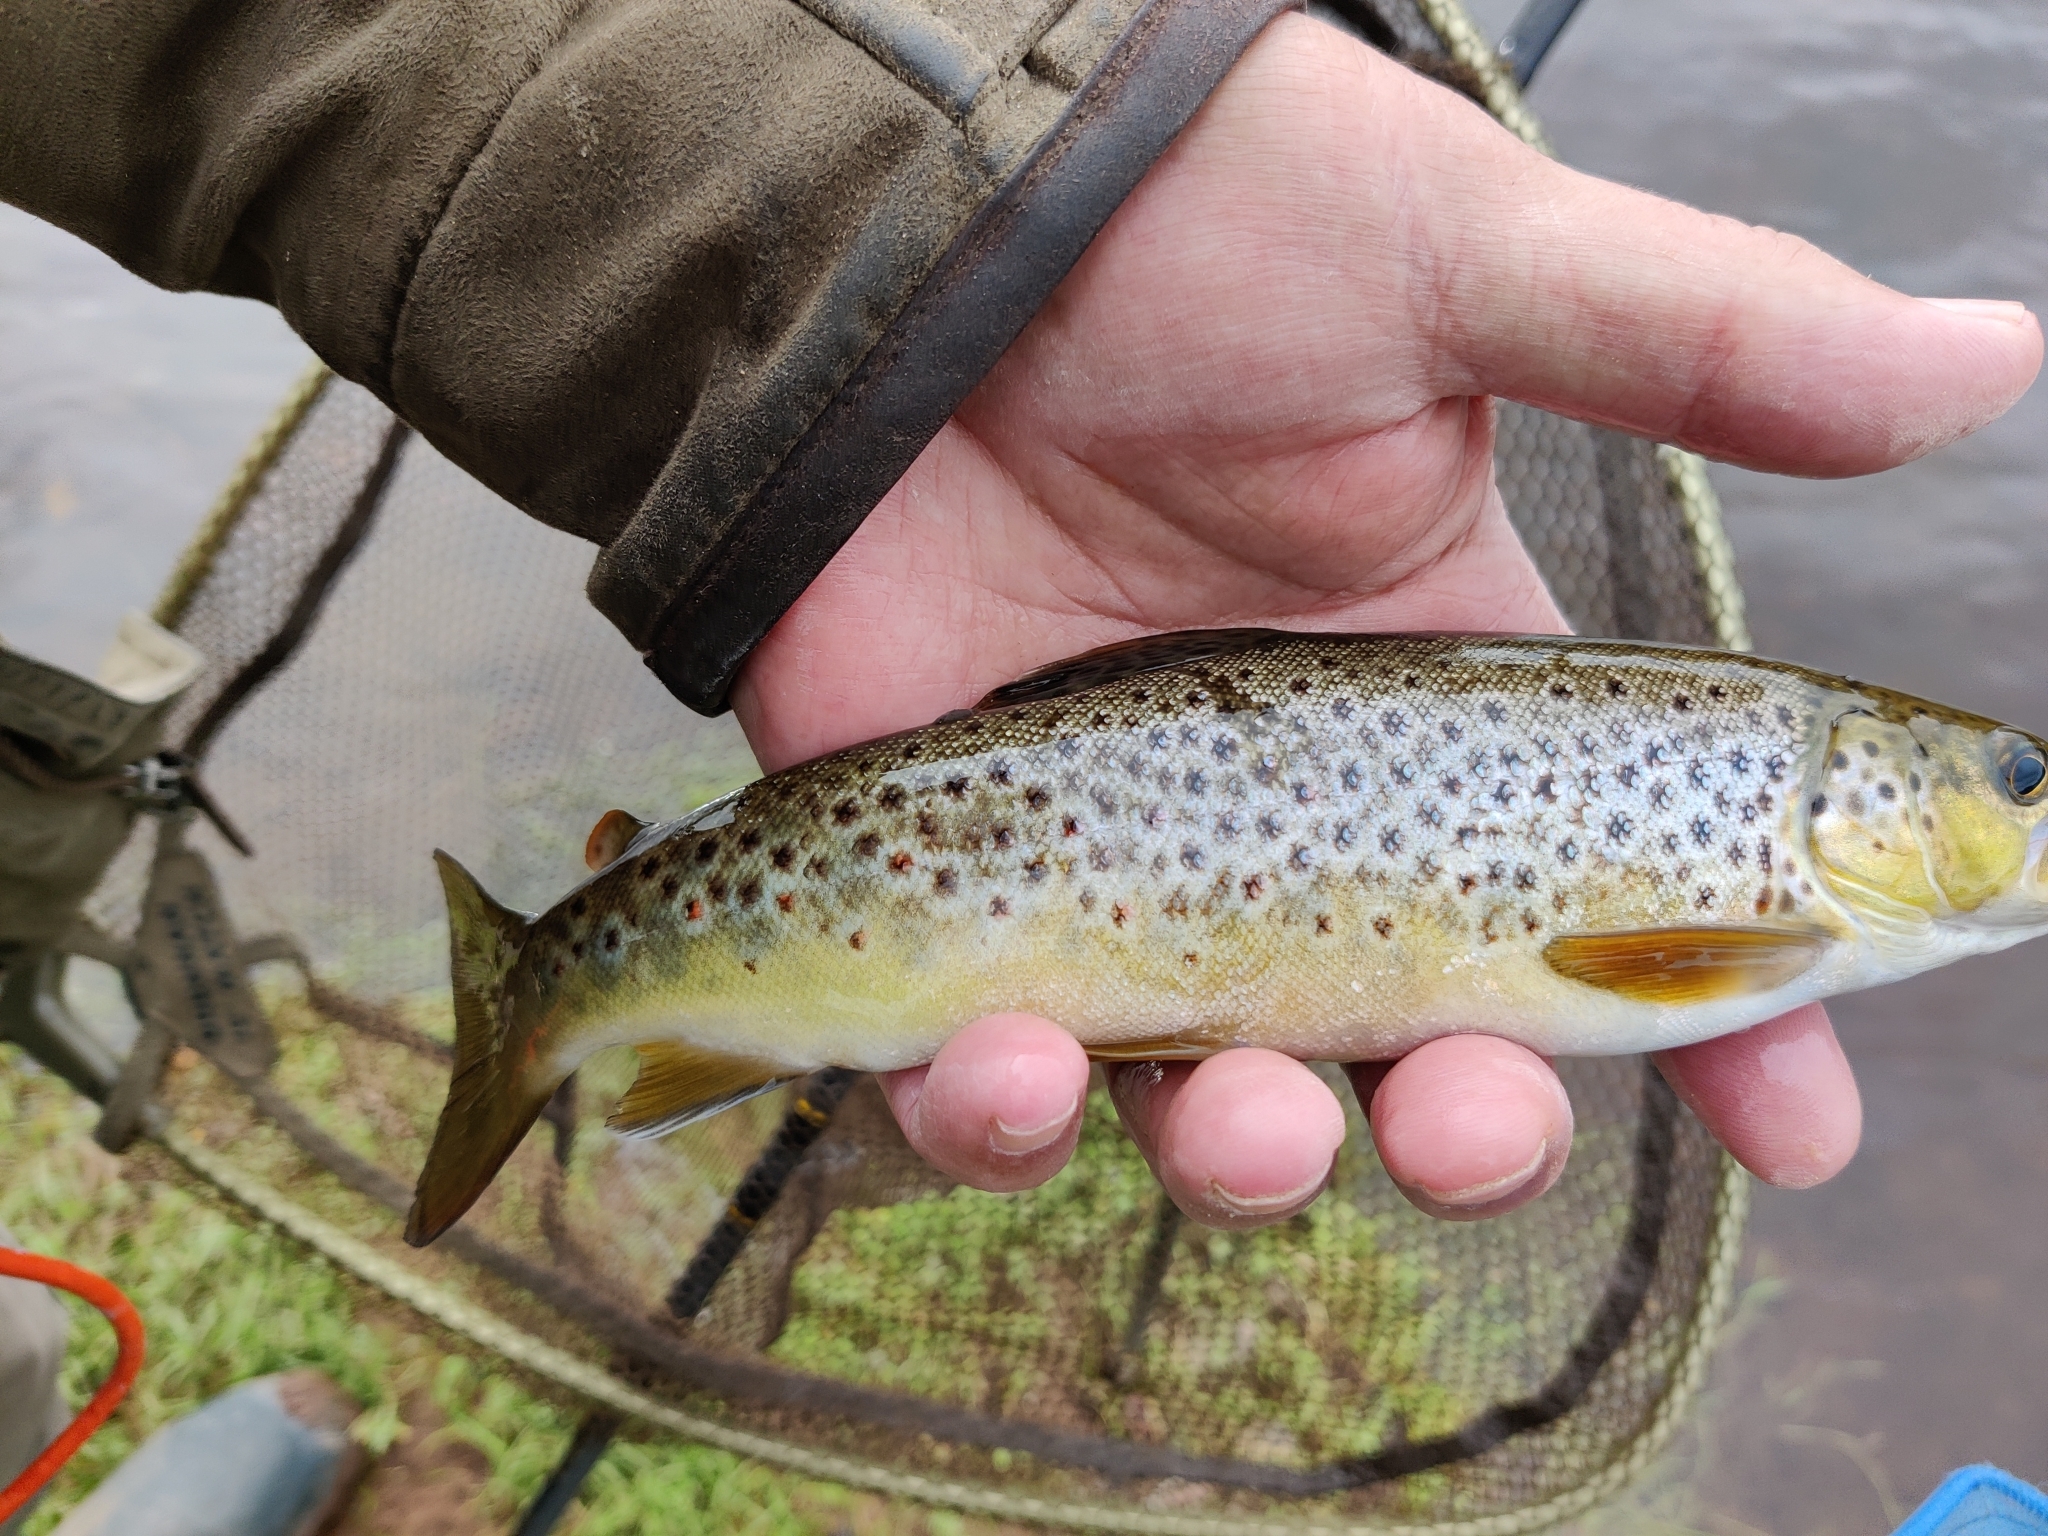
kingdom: Animalia
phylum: Chordata
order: Salmoniformes
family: Salmonidae
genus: Salmo
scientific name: Salmo trutta
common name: Brown trout
